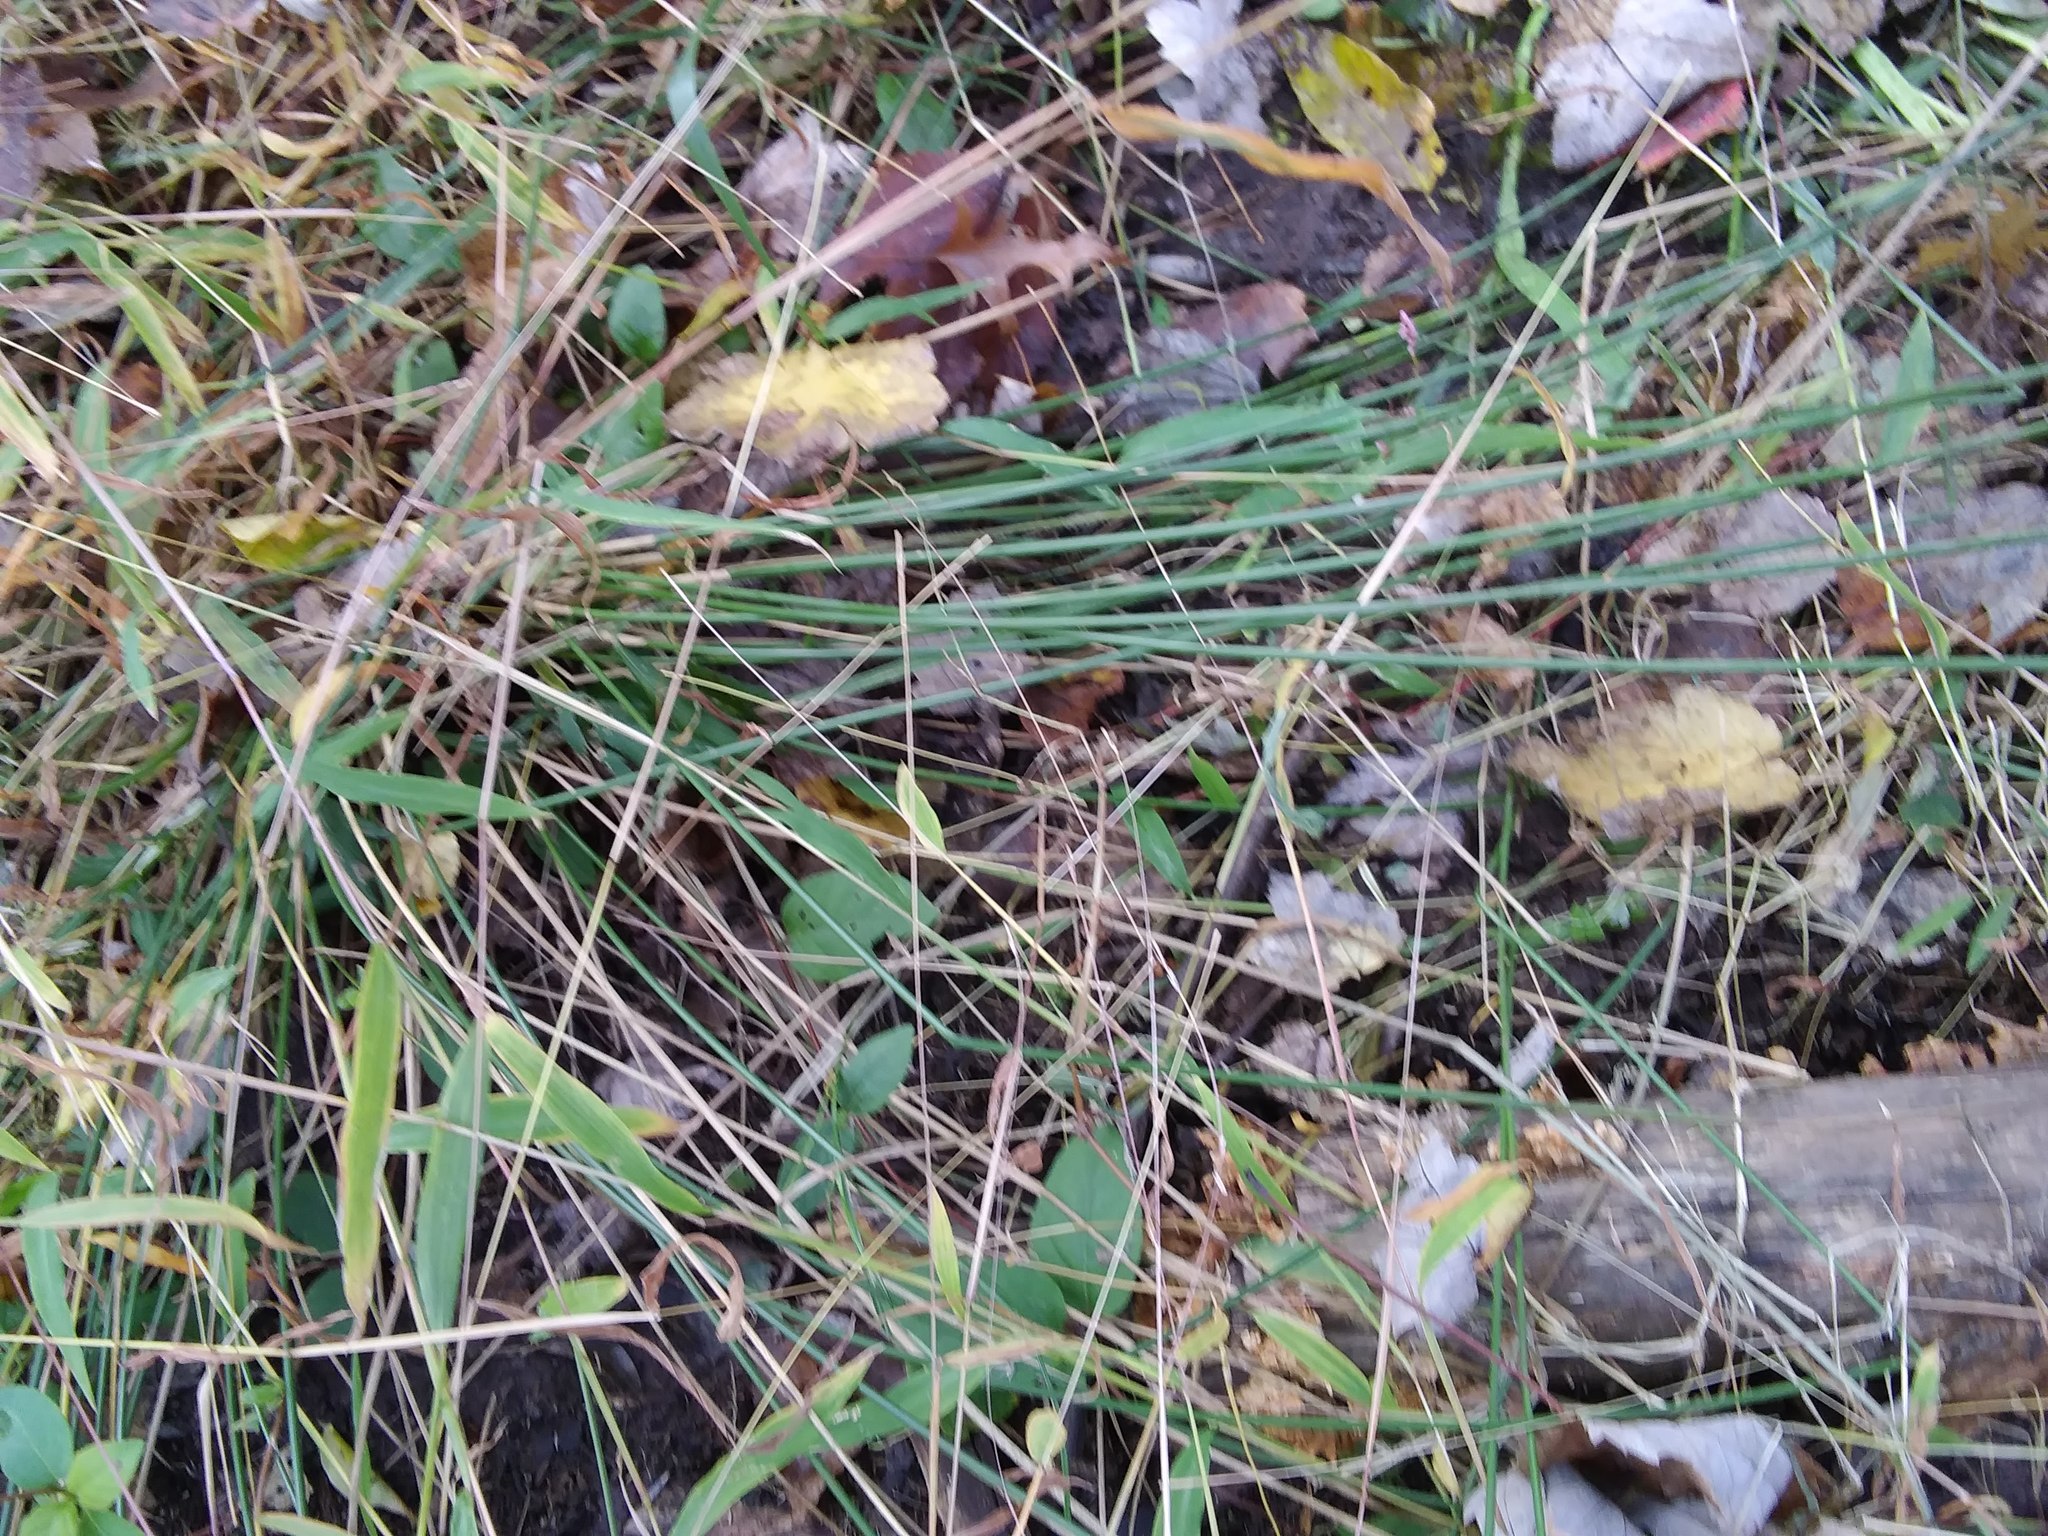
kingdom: Plantae
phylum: Tracheophyta
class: Liliopsida
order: Asparagales
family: Amaryllidaceae
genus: Allium
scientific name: Allium vineale
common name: Crow garlic
